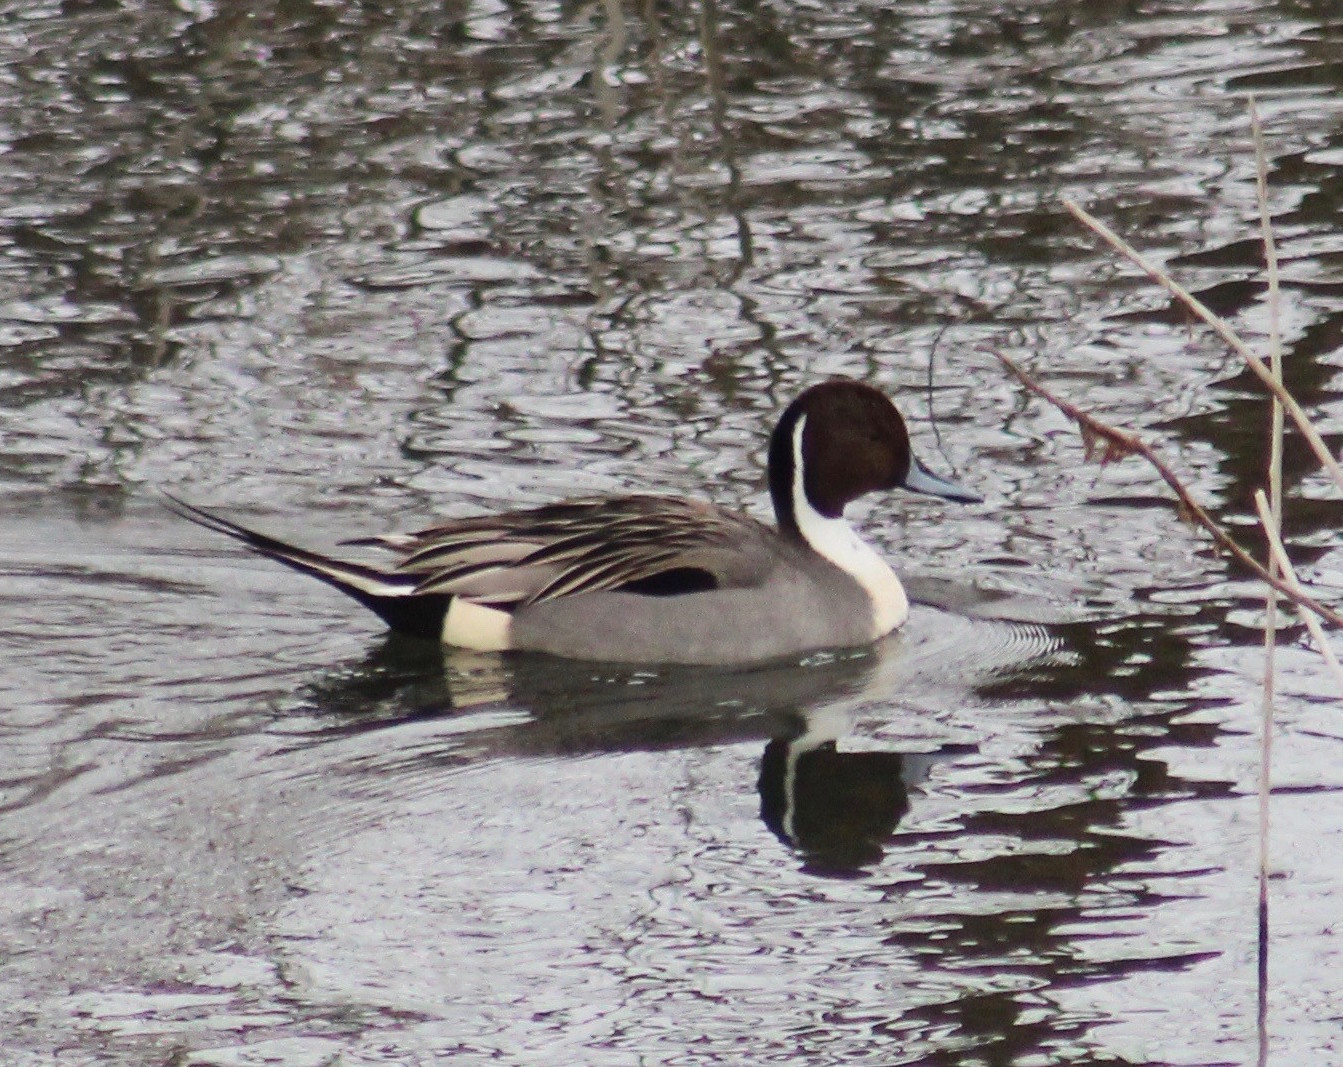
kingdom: Animalia
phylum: Chordata
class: Aves
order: Anseriformes
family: Anatidae
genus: Anas
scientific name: Anas acuta
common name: Northern pintail
